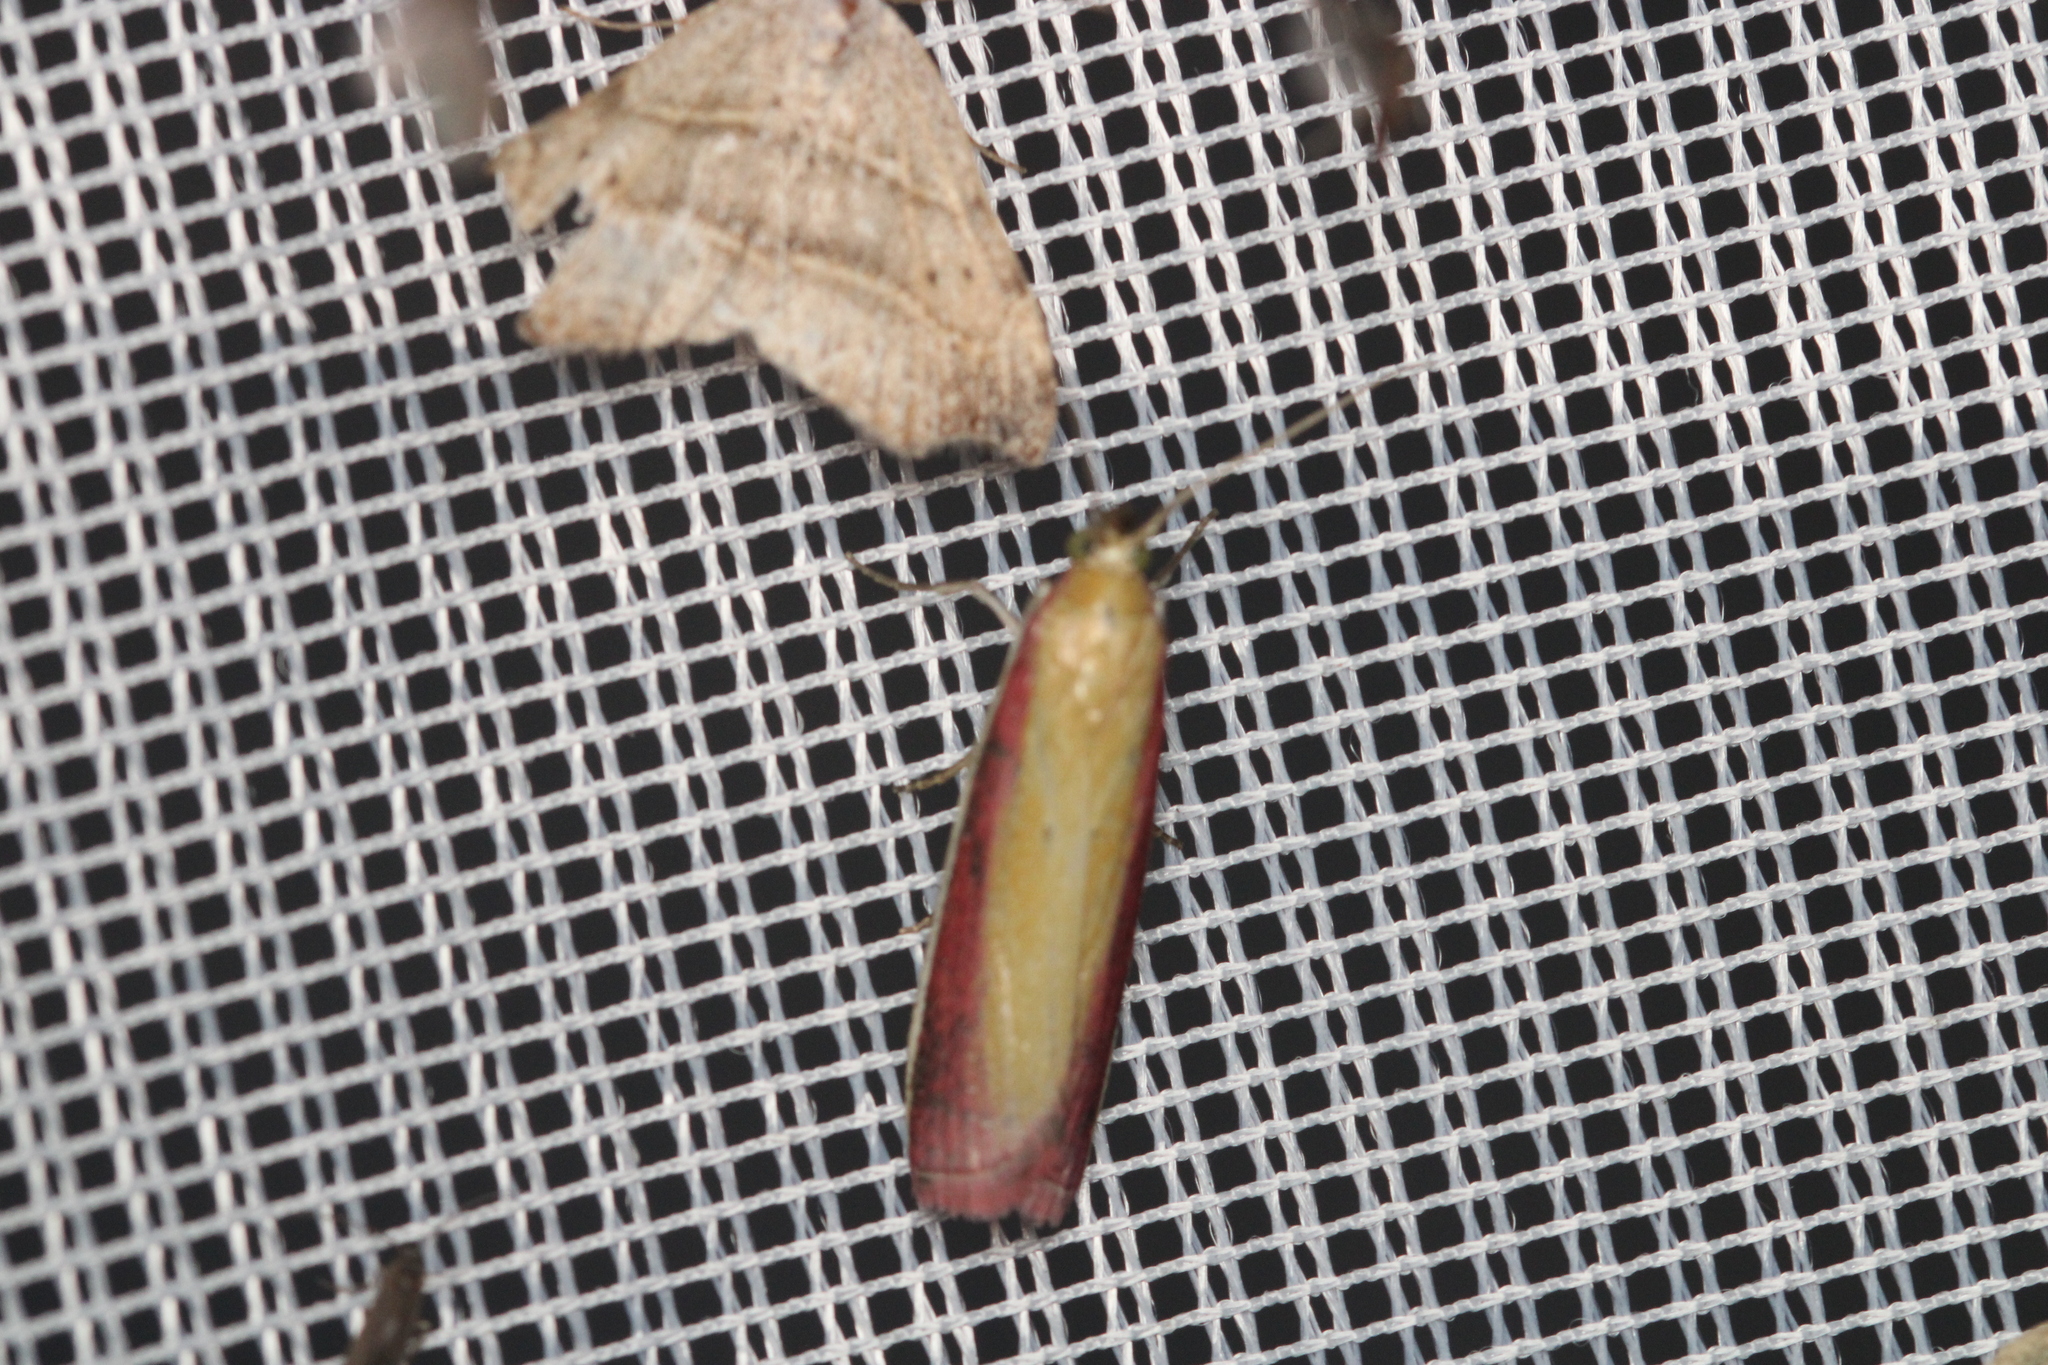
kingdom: Animalia
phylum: Arthropoda
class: Insecta
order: Lepidoptera
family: Pyralidae
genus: Oncocera
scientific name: Oncocera semirubella
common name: Rosy-striped knot-horn
